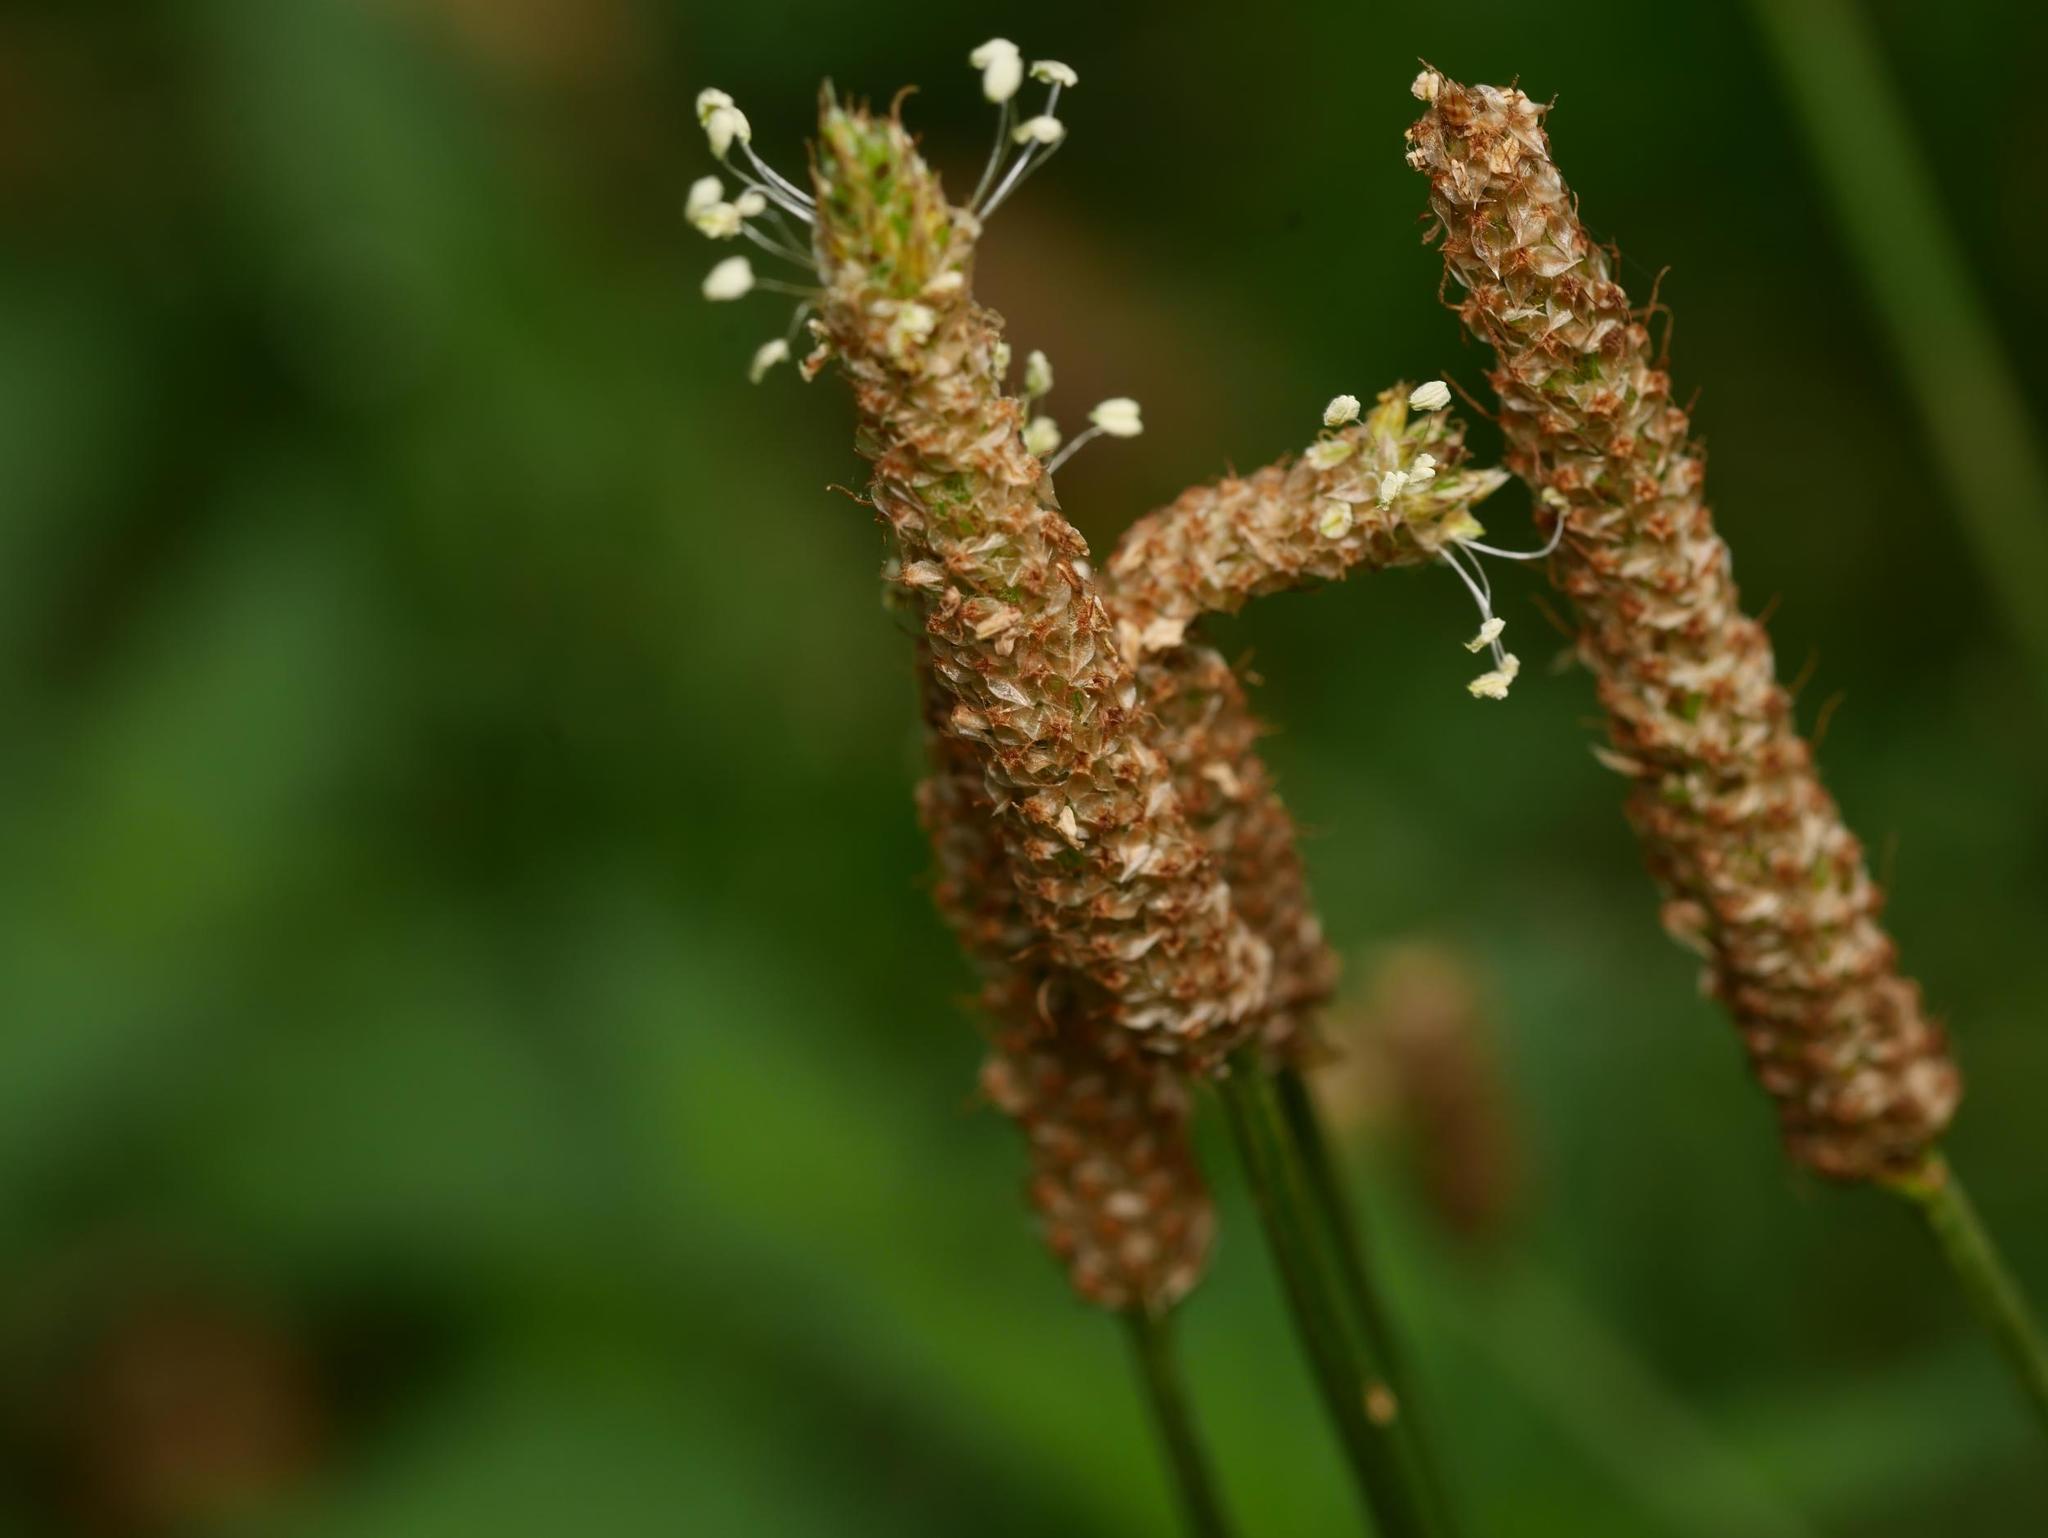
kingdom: Plantae
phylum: Tracheophyta
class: Magnoliopsida
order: Lamiales
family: Plantaginaceae
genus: Plantago
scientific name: Plantago lanceolata
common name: Ribwort plantain
